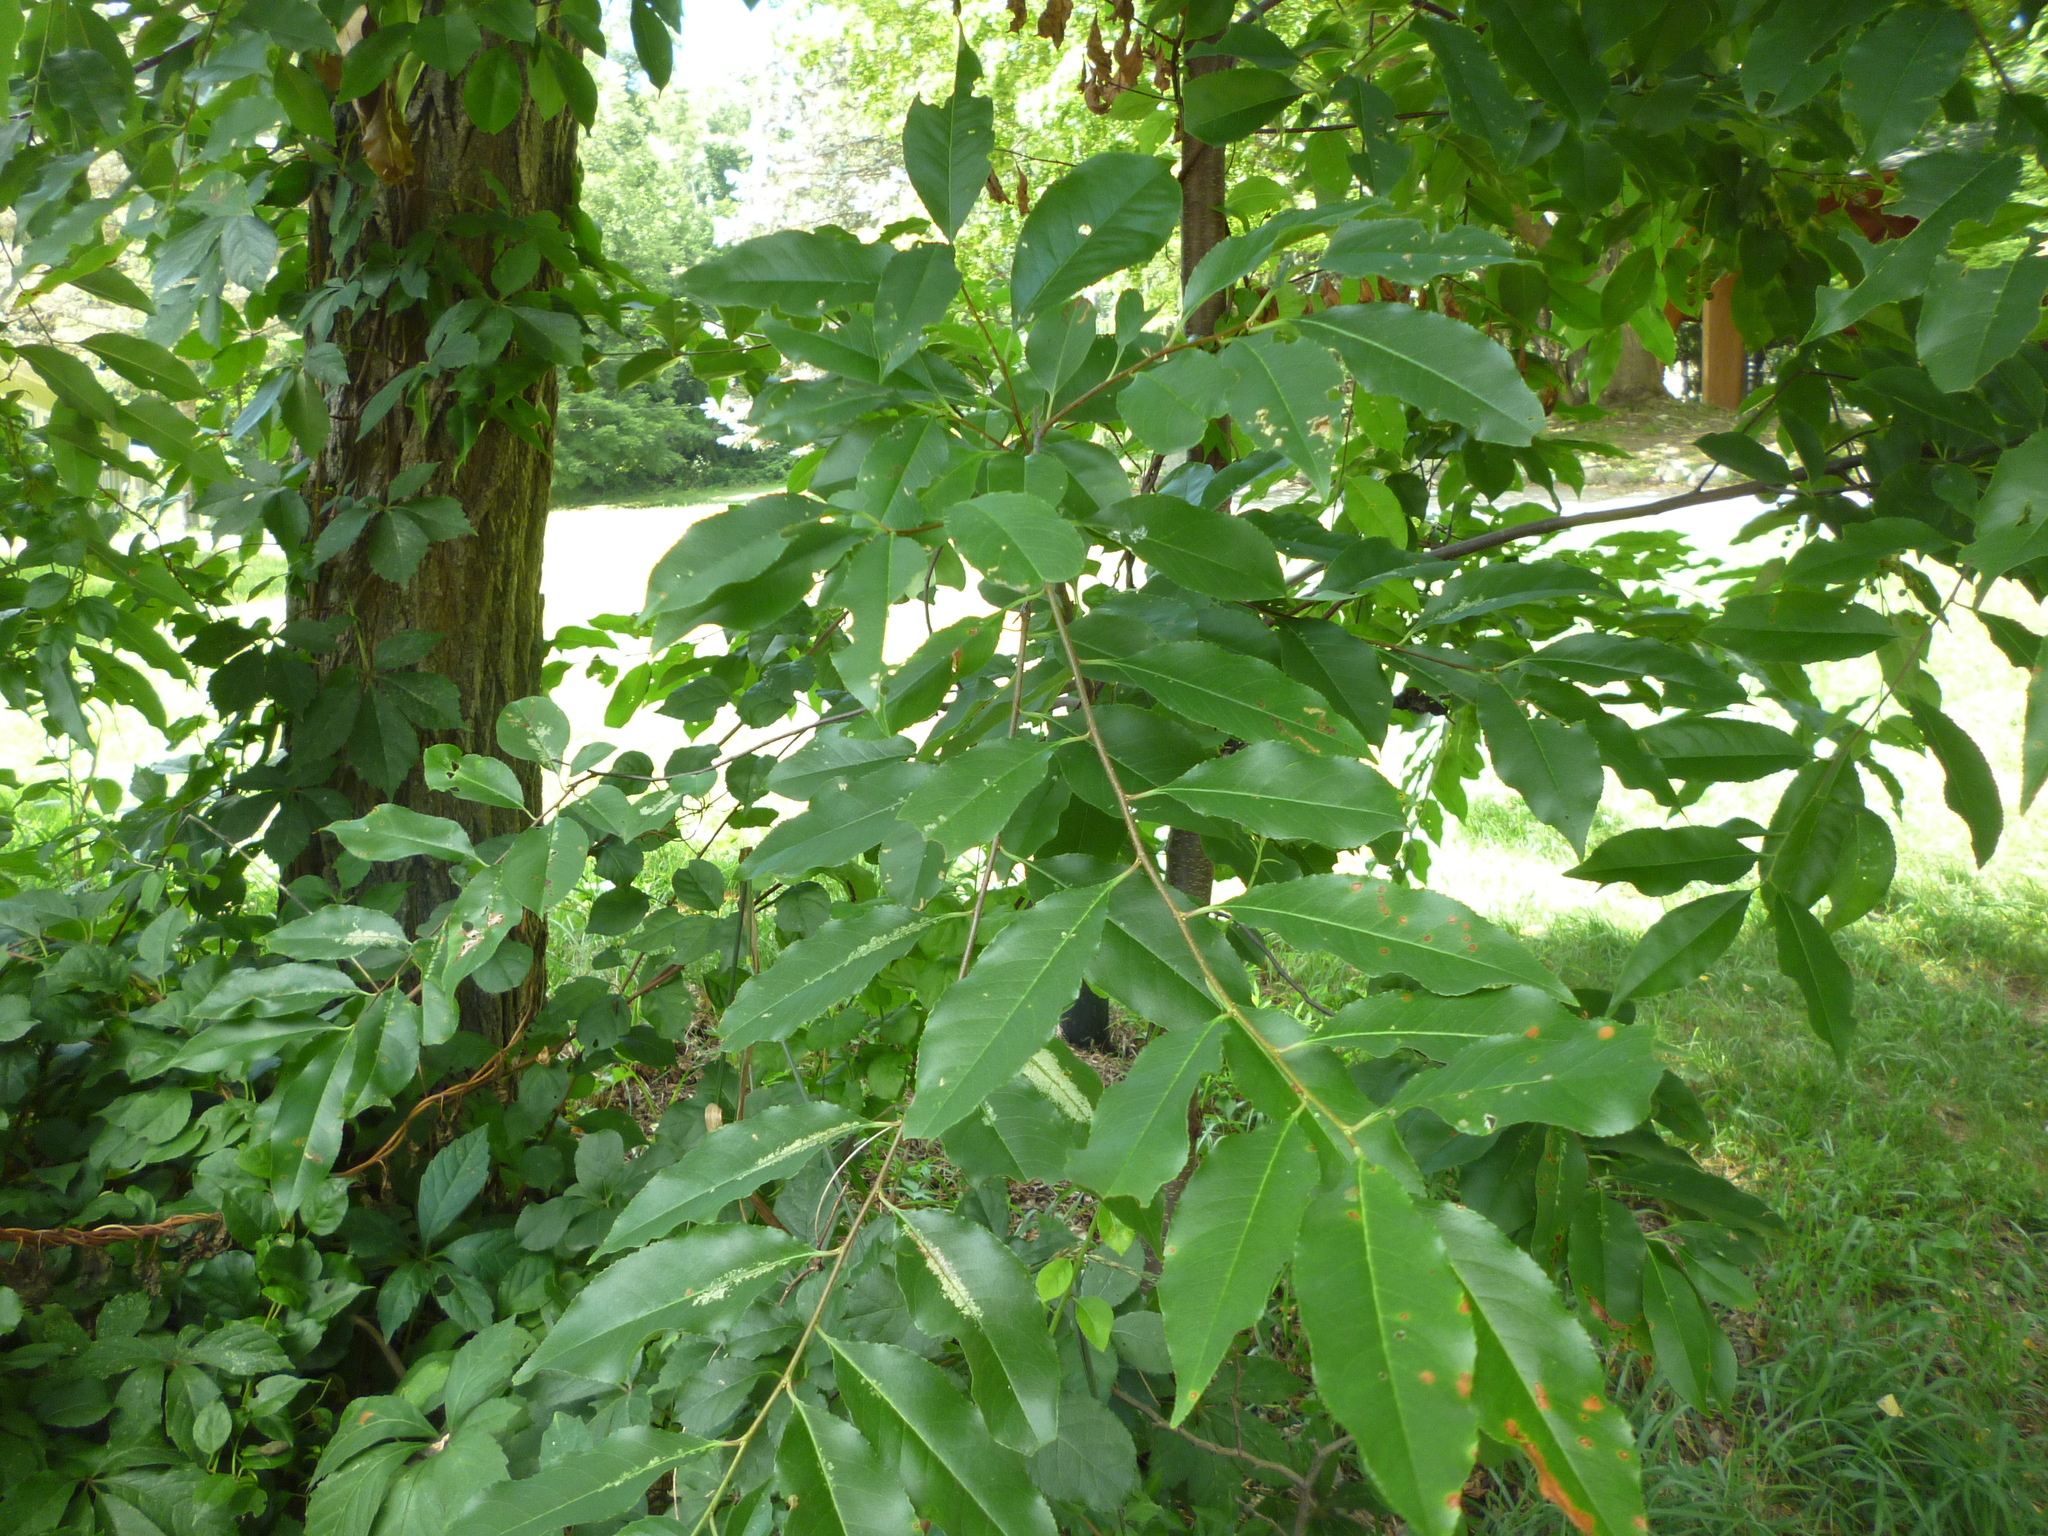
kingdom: Plantae
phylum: Tracheophyta
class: Magnoliopsida
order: Rosales
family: Rosaceae
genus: Prunus
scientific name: Prunus serotina
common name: Black cherry
